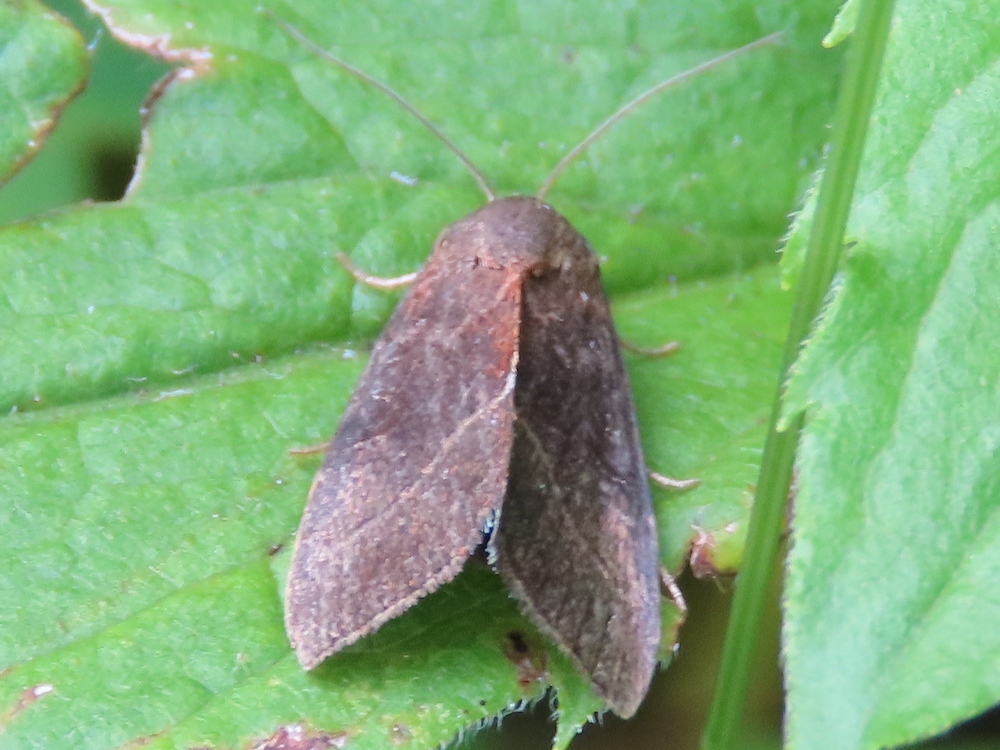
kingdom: Animalia
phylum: Arthropoda
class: Insecta
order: Lepidoptera
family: Noctuidae
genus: Galgula
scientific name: Galgula partita
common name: Wedgeling
